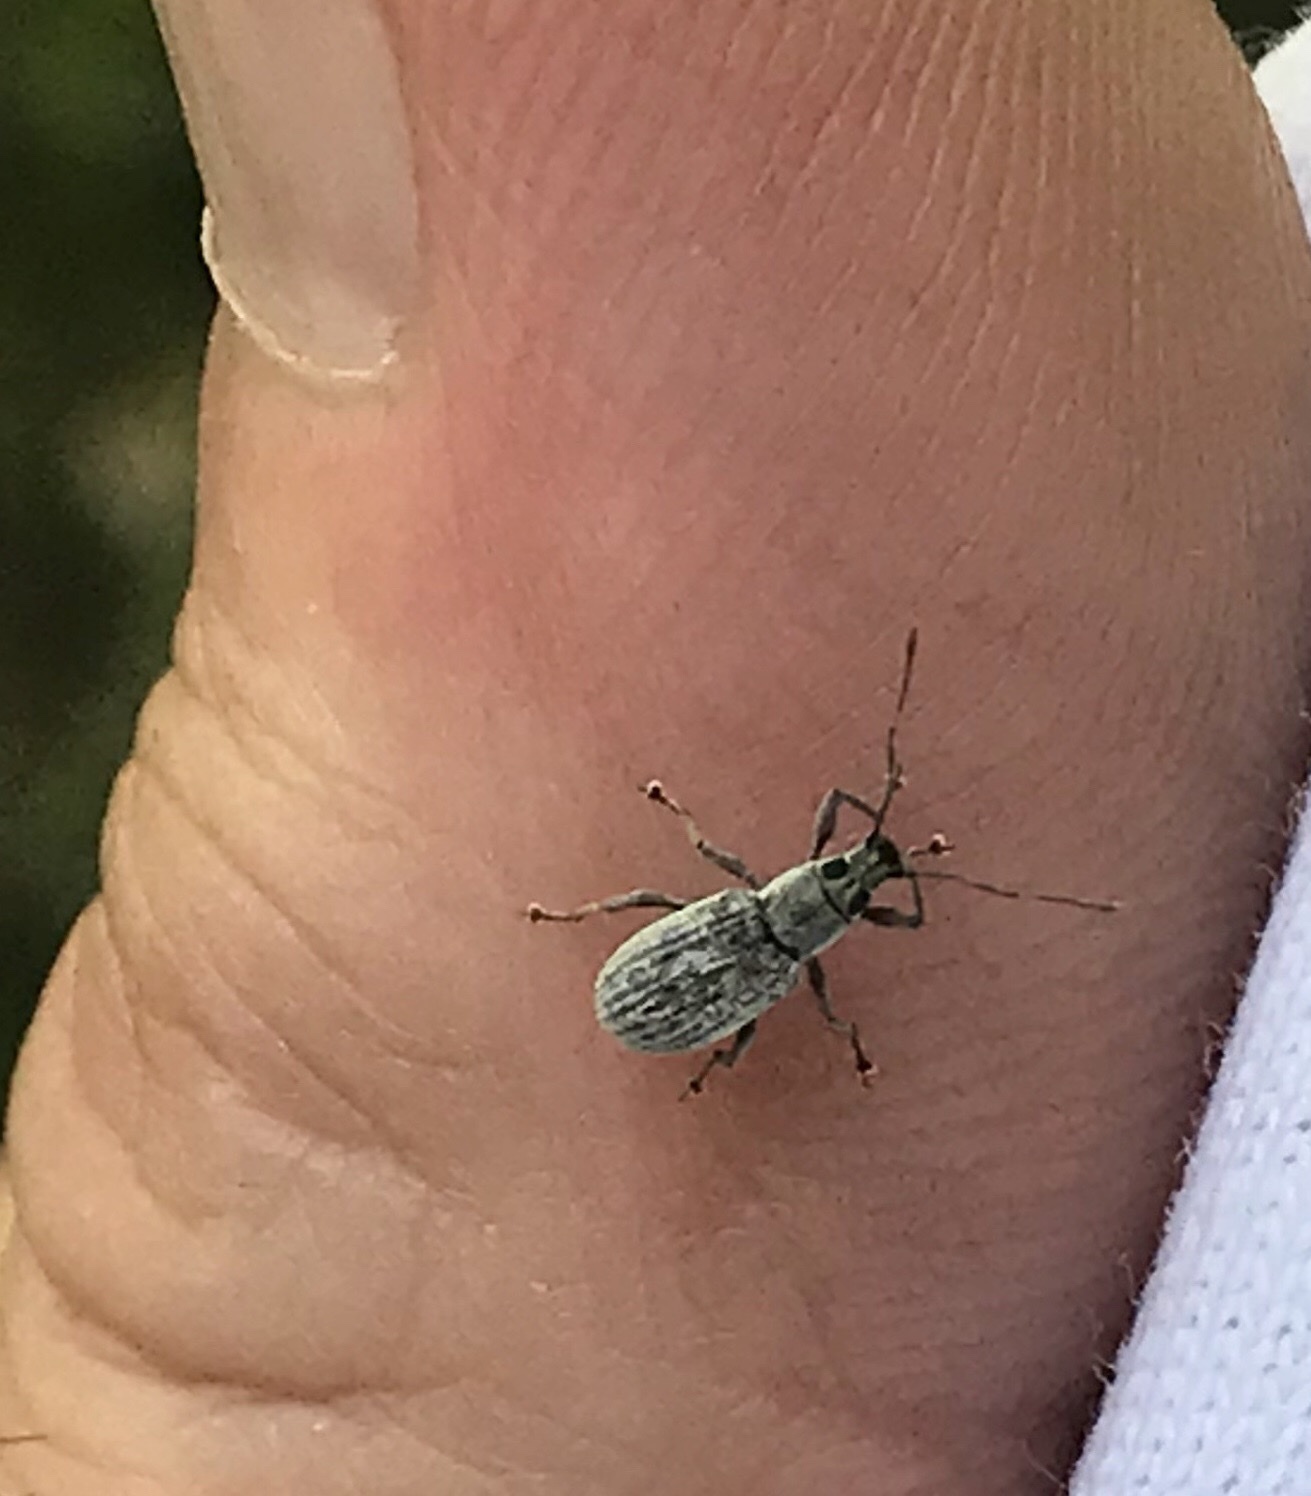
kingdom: Animalia
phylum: Arthropoda
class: Insecta
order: Coleoptera
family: Curculionidae
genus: Cyrtepistomus
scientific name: Cyrtepistomus castaneus
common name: Weevil
